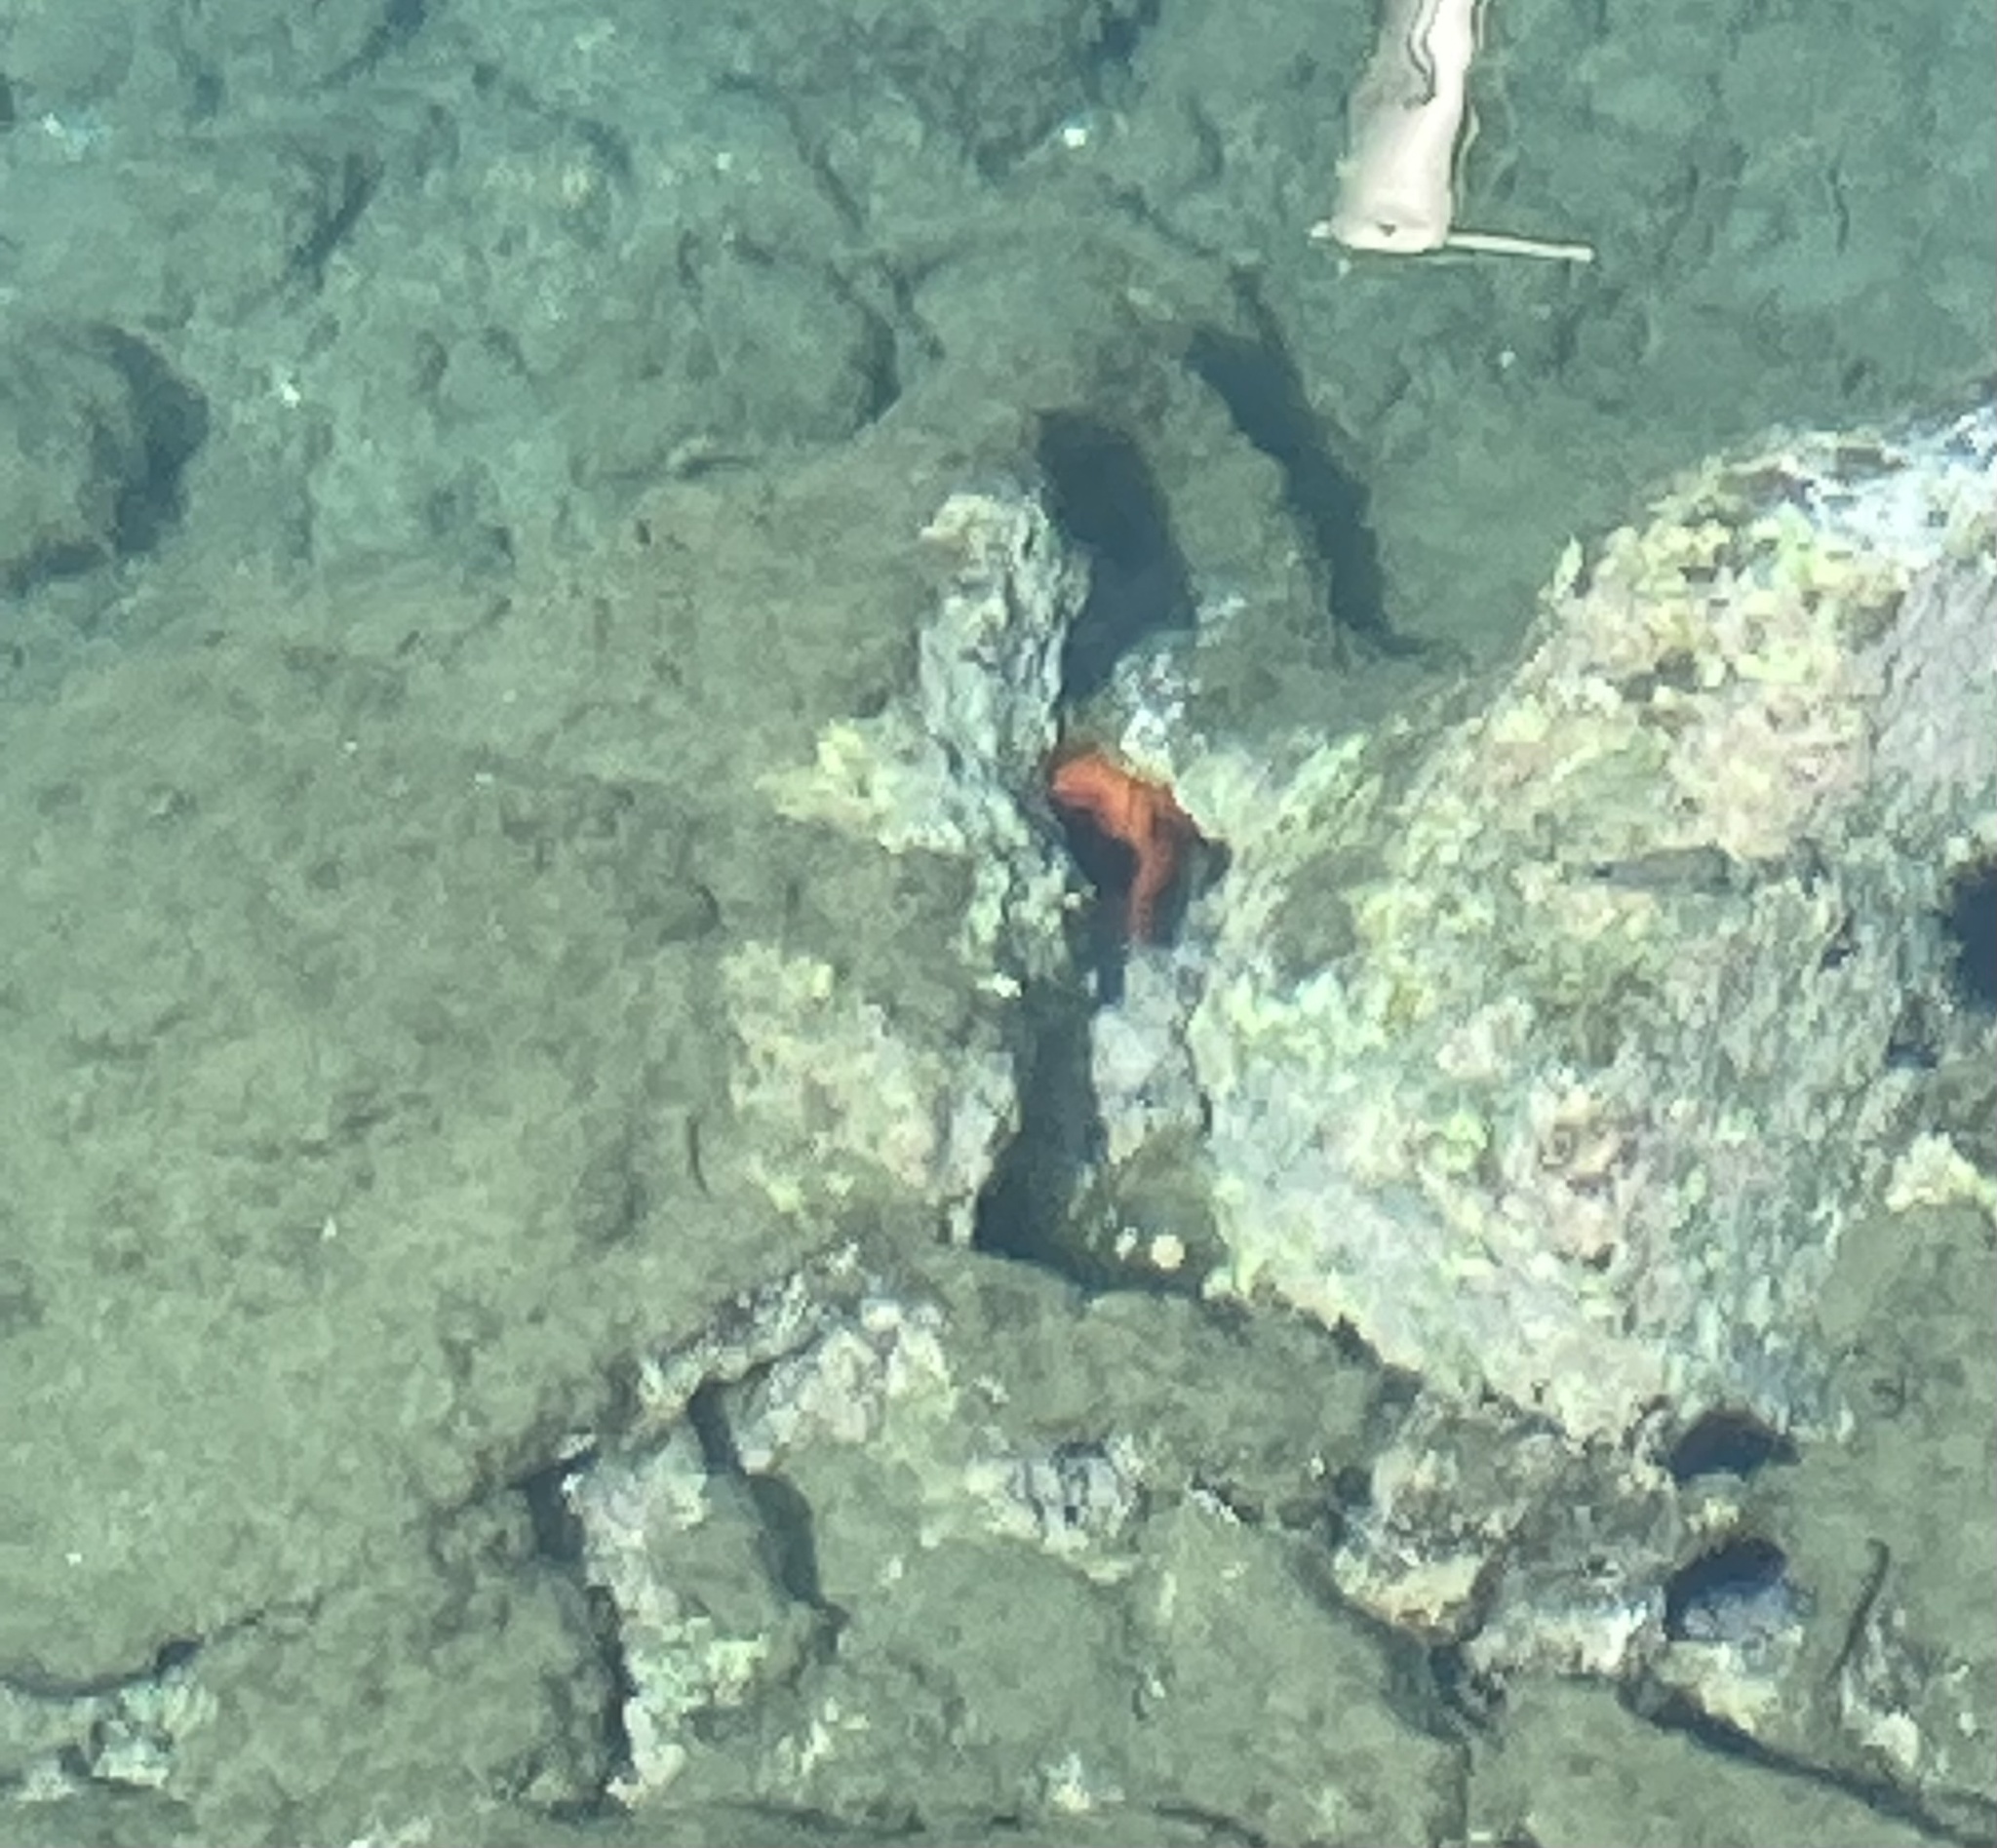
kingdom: Animalia
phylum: Echinodermata
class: Asteroidea
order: Spinulosida
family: Echinasteridae
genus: Echinaster
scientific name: Echinaster sepositus
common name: Red starfish
